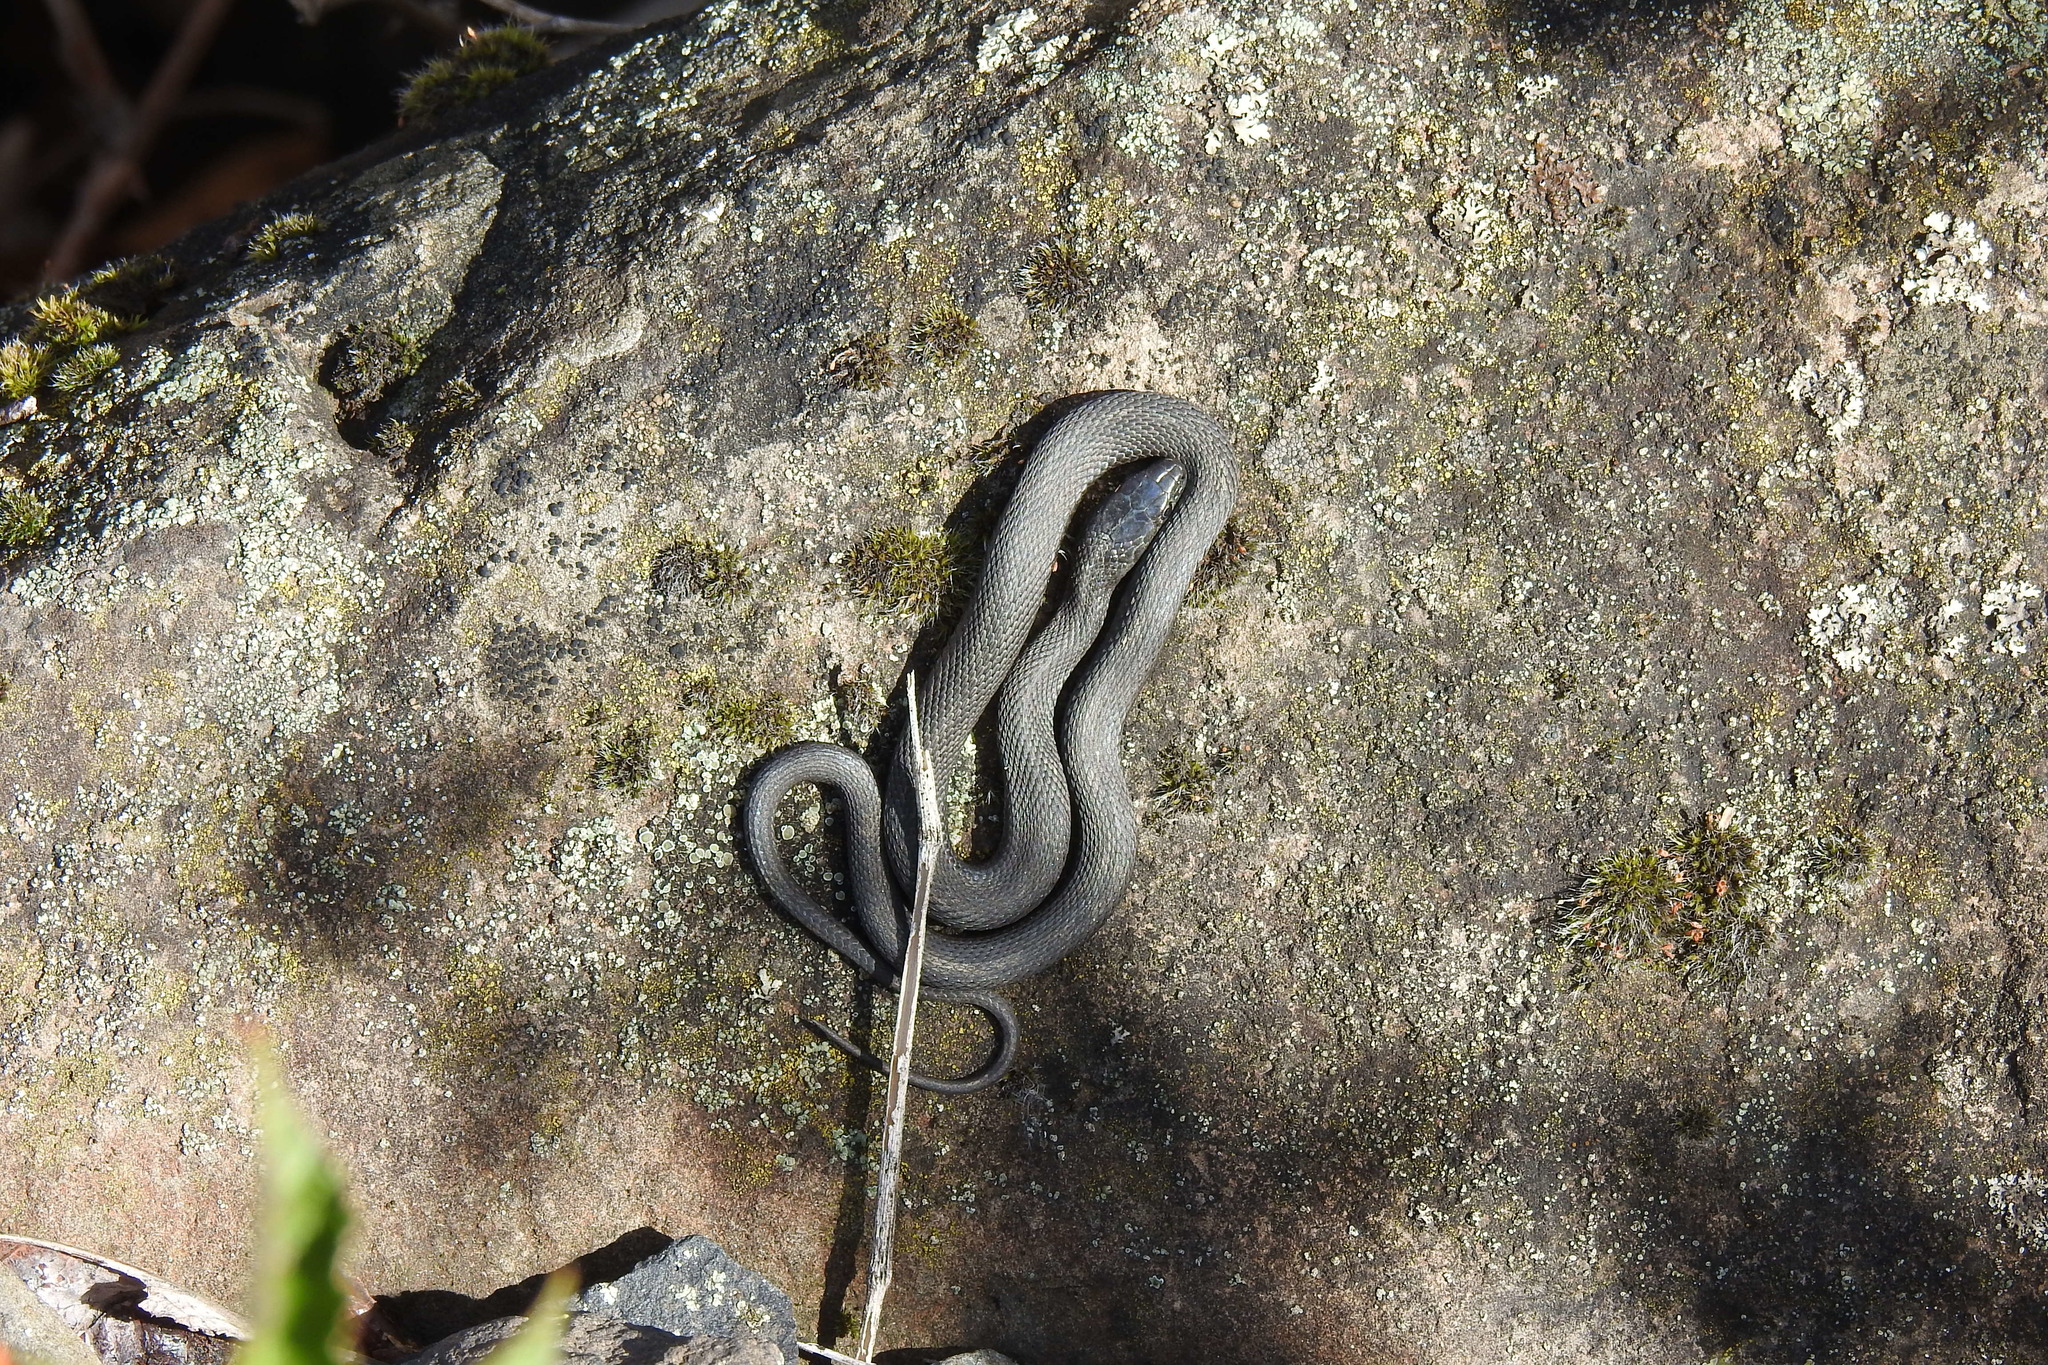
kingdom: Animalia
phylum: Chordata
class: Squamata
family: Colubridae
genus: Thamnophis
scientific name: Thamnophis elegans
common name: Western terrestrial garter snake
